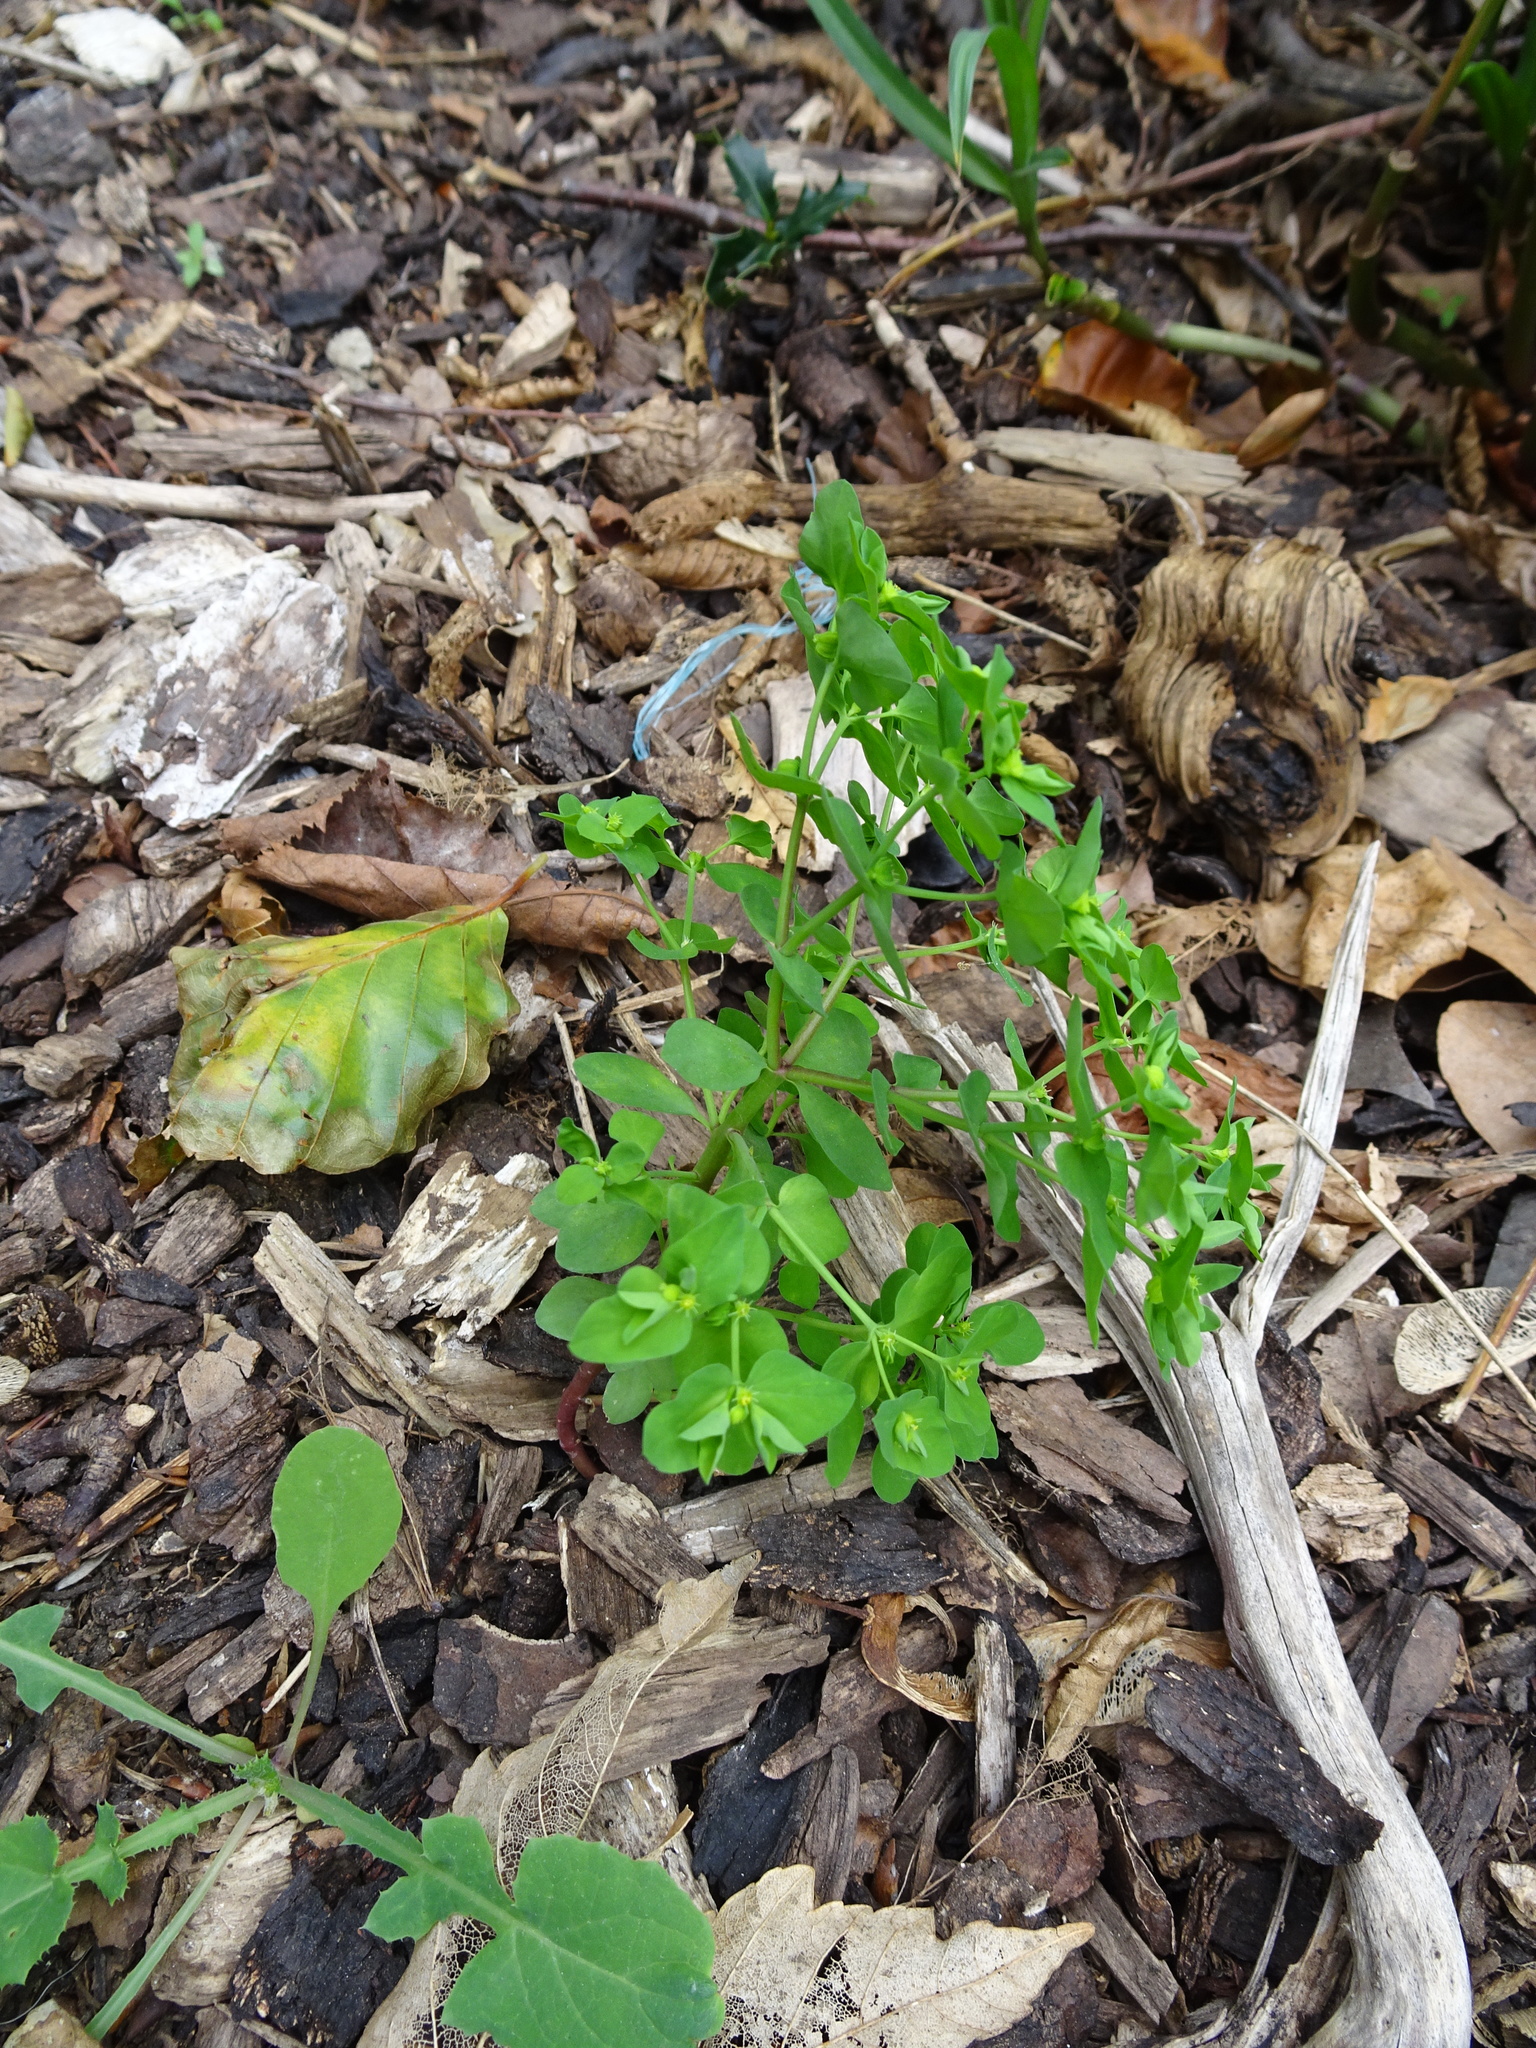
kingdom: Plantae
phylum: Tracheophyta
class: Magnoliopsida
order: Malpighiales
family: Euphorbiaceae
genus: Euphorbia
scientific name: Euphorbia peplus
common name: Petty spurge
